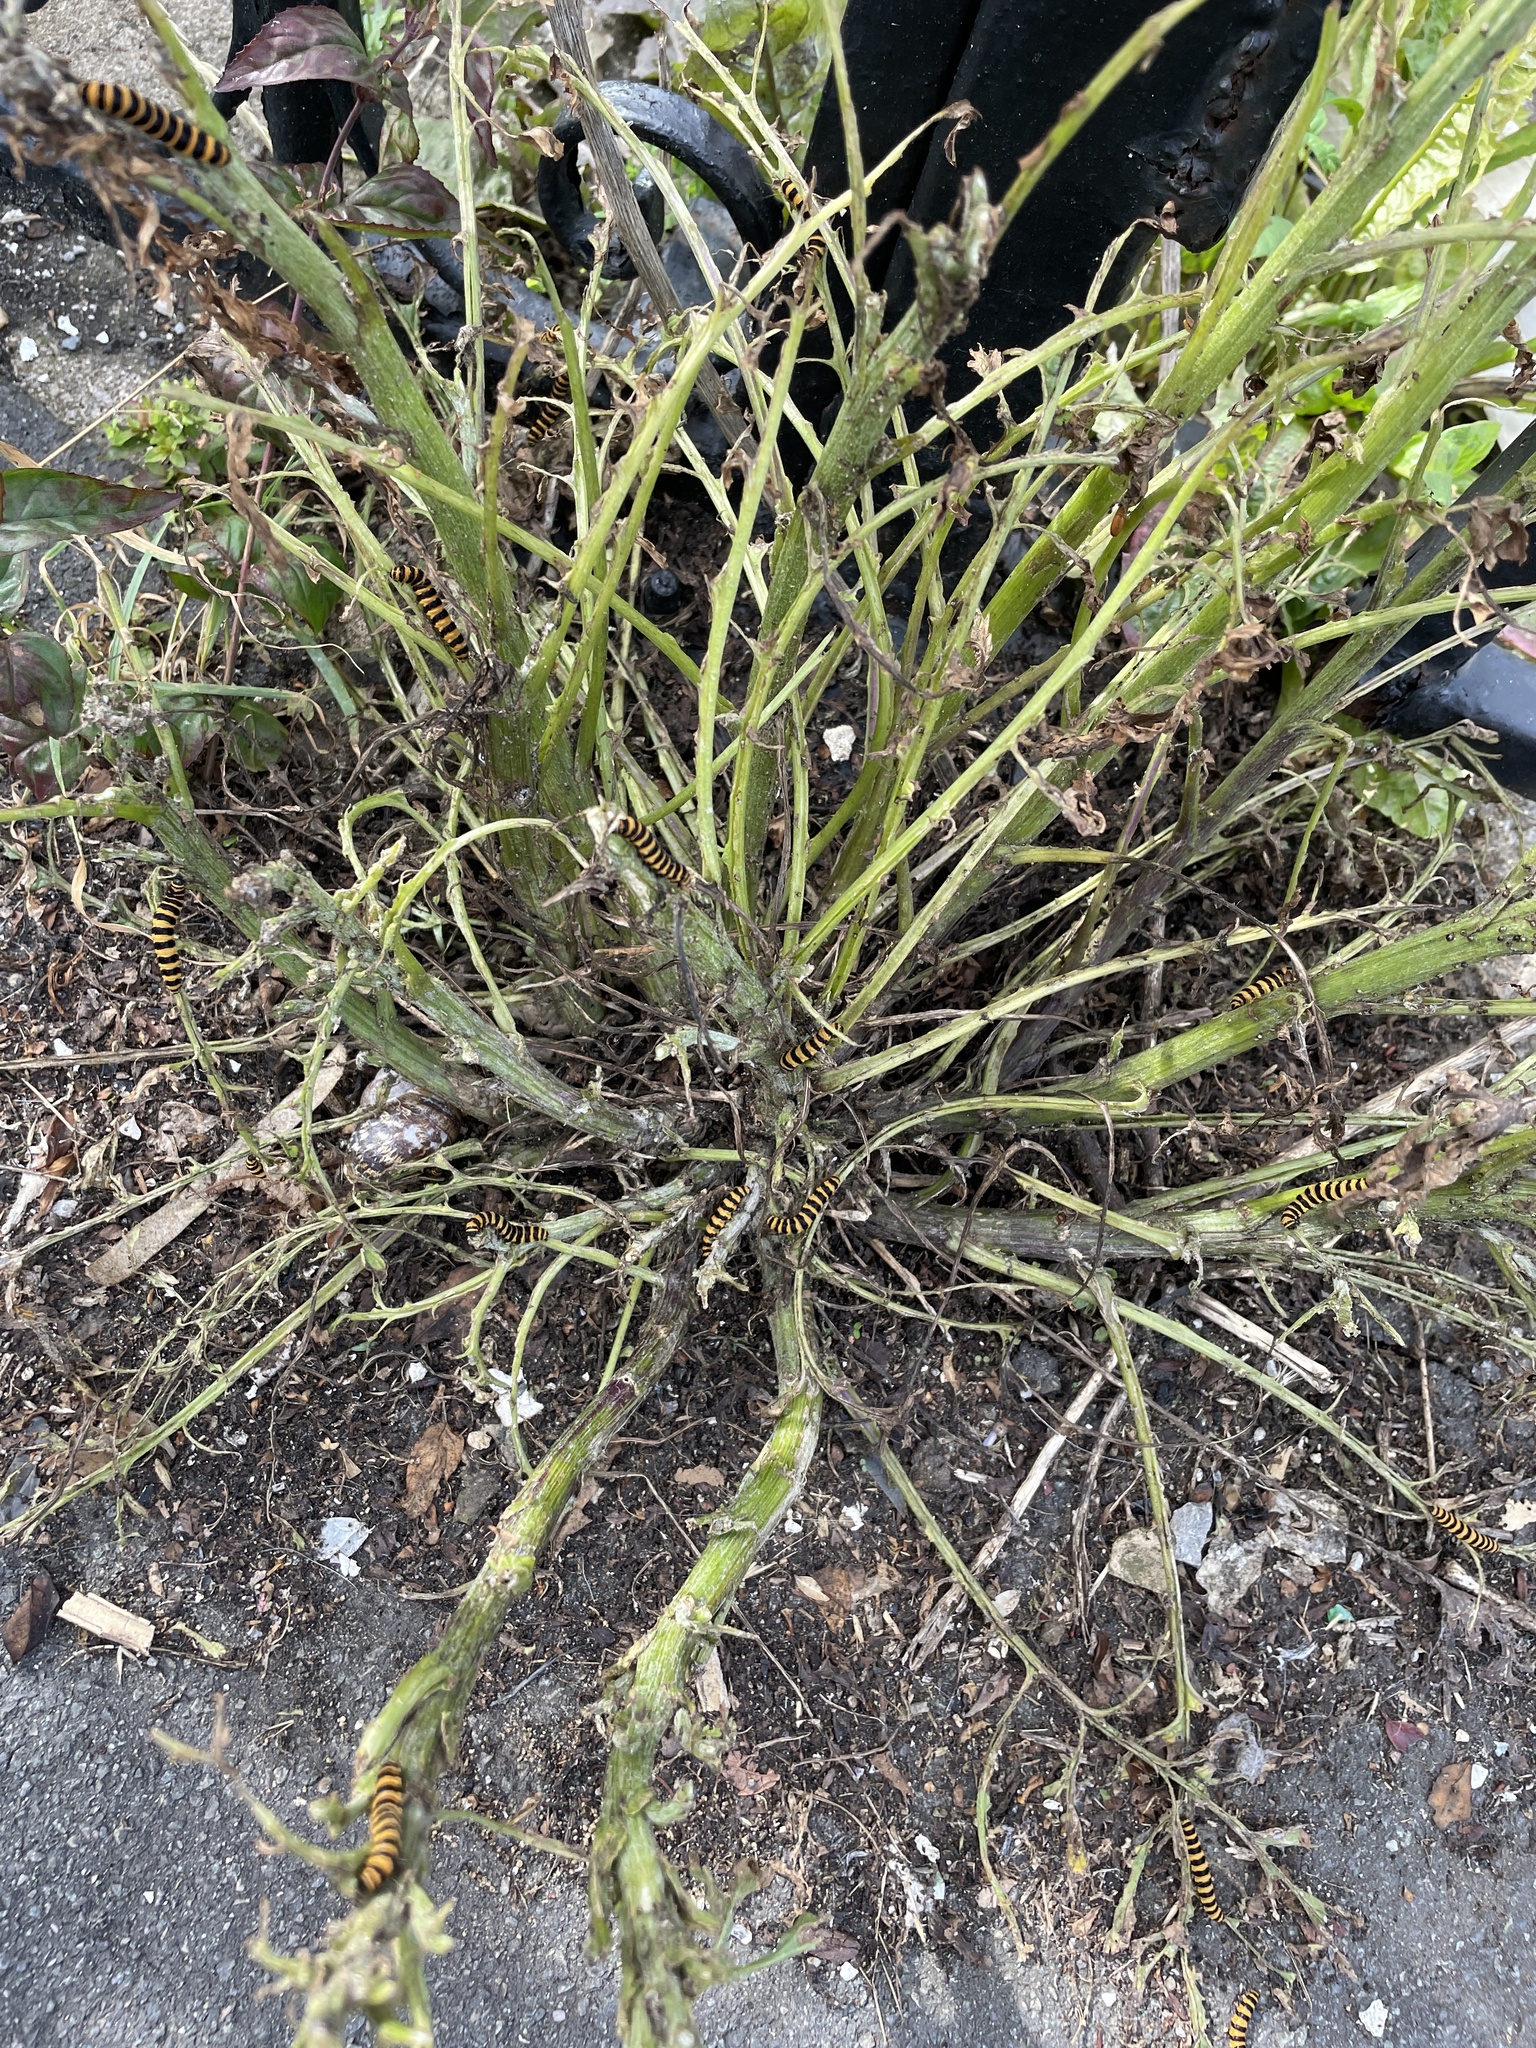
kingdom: Animalia
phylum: Arthropoda
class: Insecta
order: Lepidoptera
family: Erebidae
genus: Tyria
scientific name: Tyria jacobaeae
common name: Cinnabar
